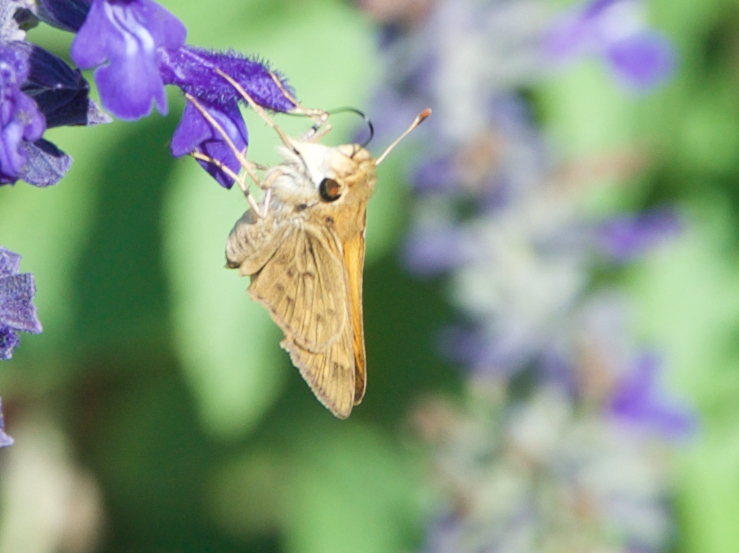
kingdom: Animalia
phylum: Arthropoda
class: Insecta
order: Lepidoptera
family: Hesperiidae
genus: Hylephila
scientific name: Hylephila phyleus
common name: Fiery skipper
